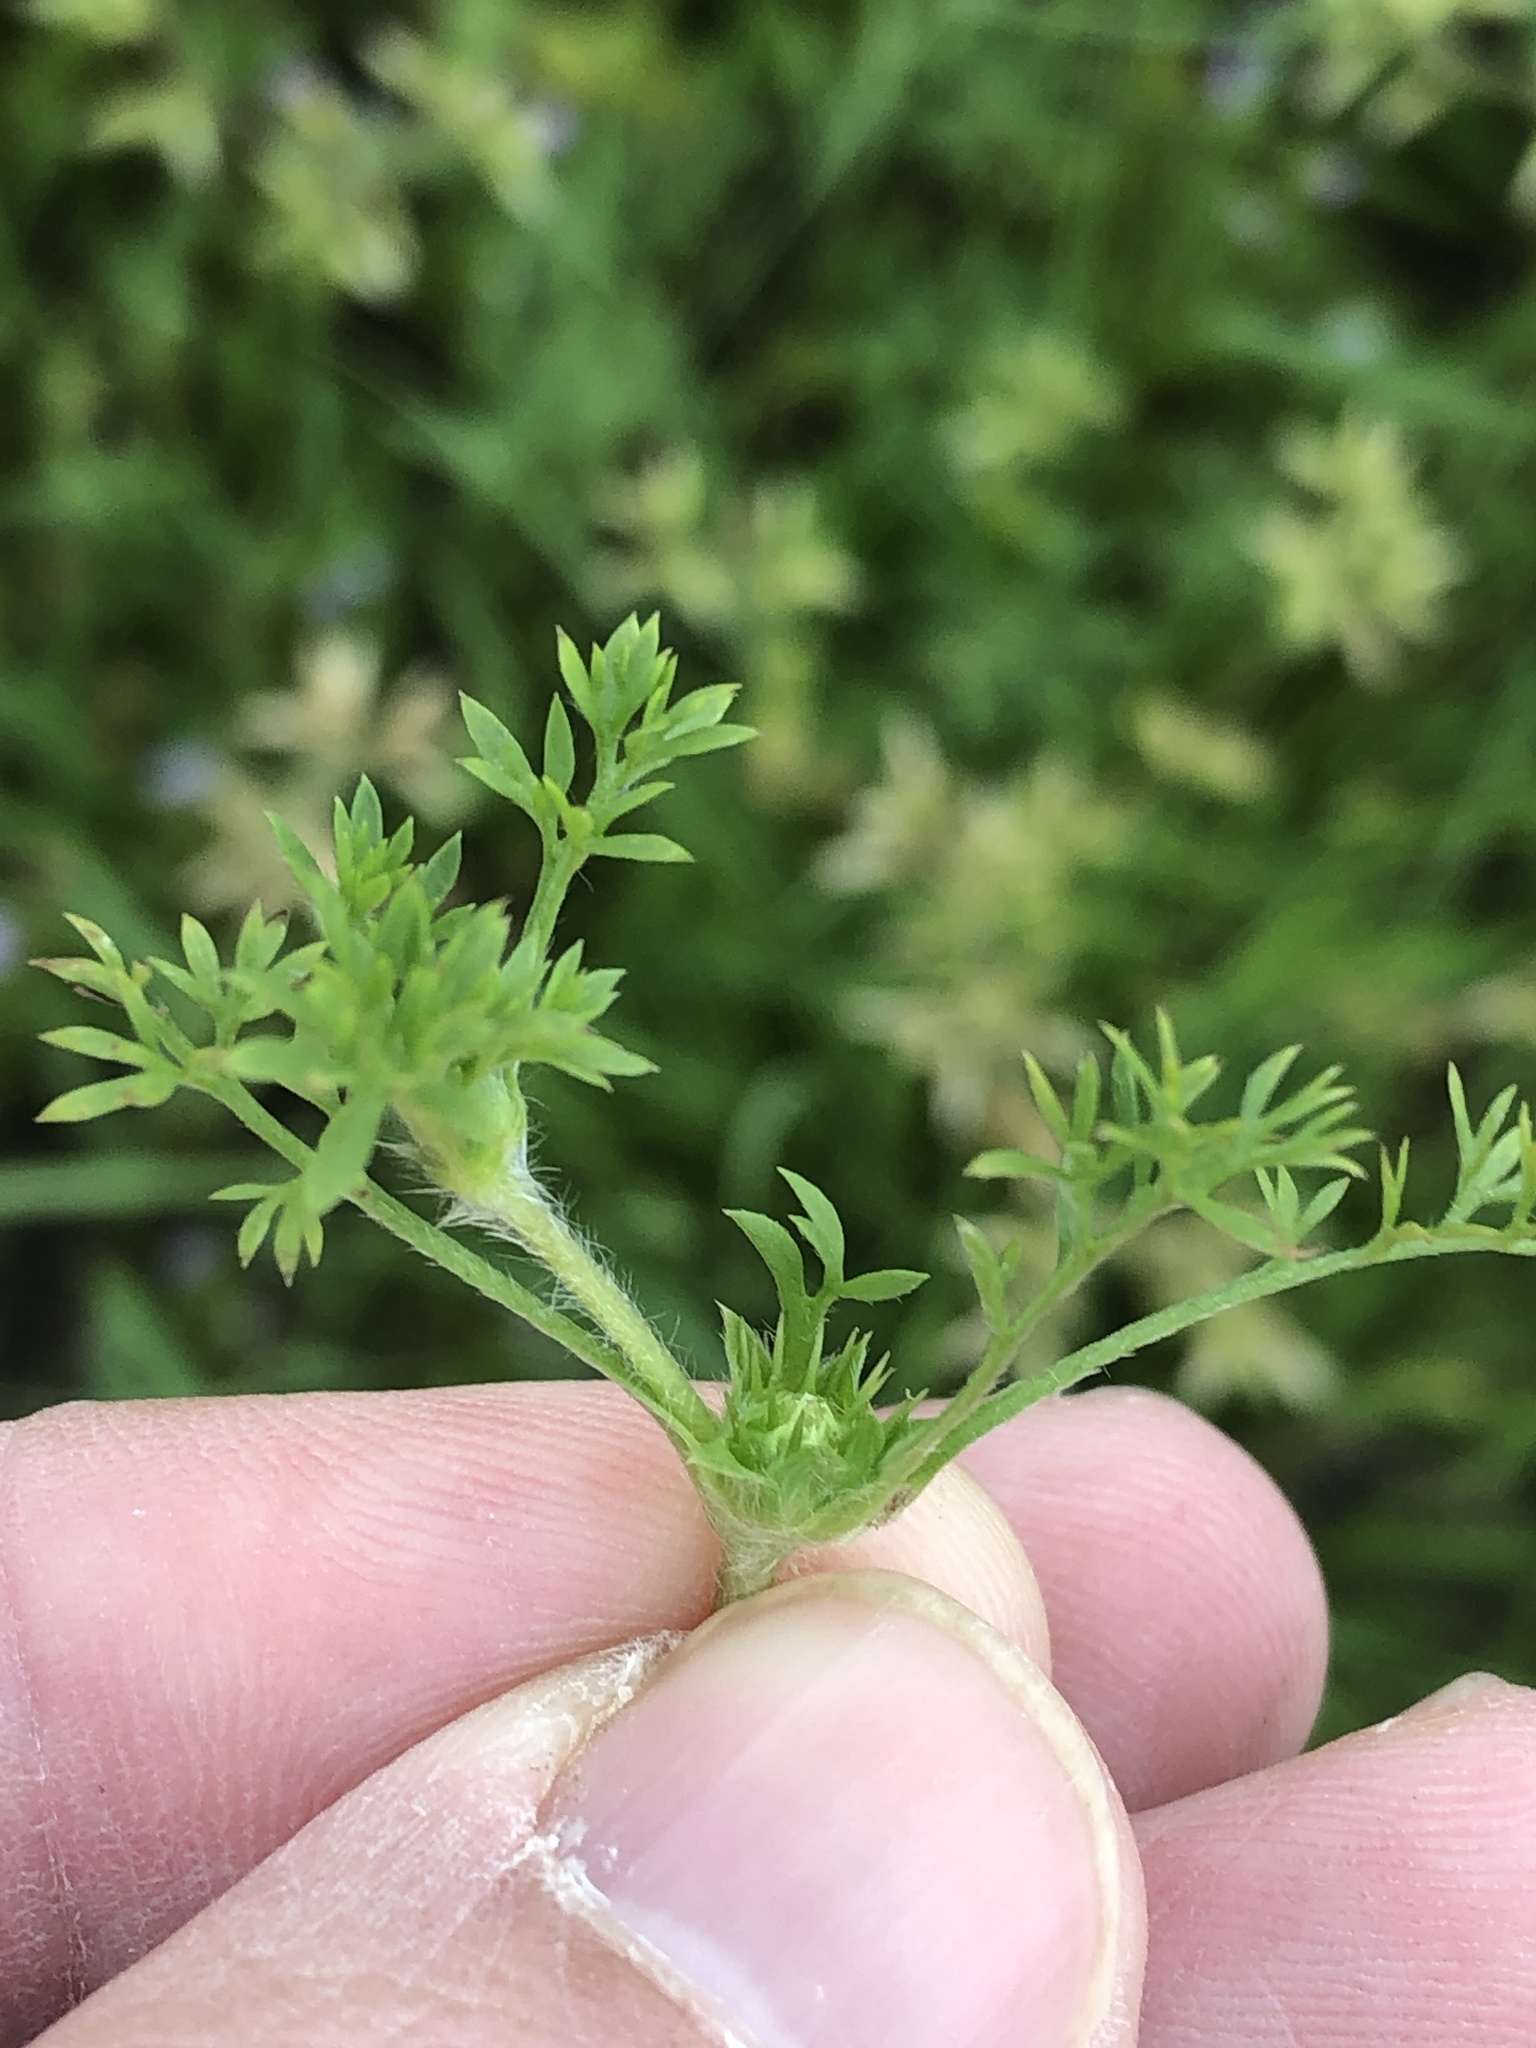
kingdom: Plantae
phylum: Tracheophyta
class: Magnoliopsida
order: Asterales
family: Asteraceae
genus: Soliva
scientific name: Soliva sessilis
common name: Field burrweed
